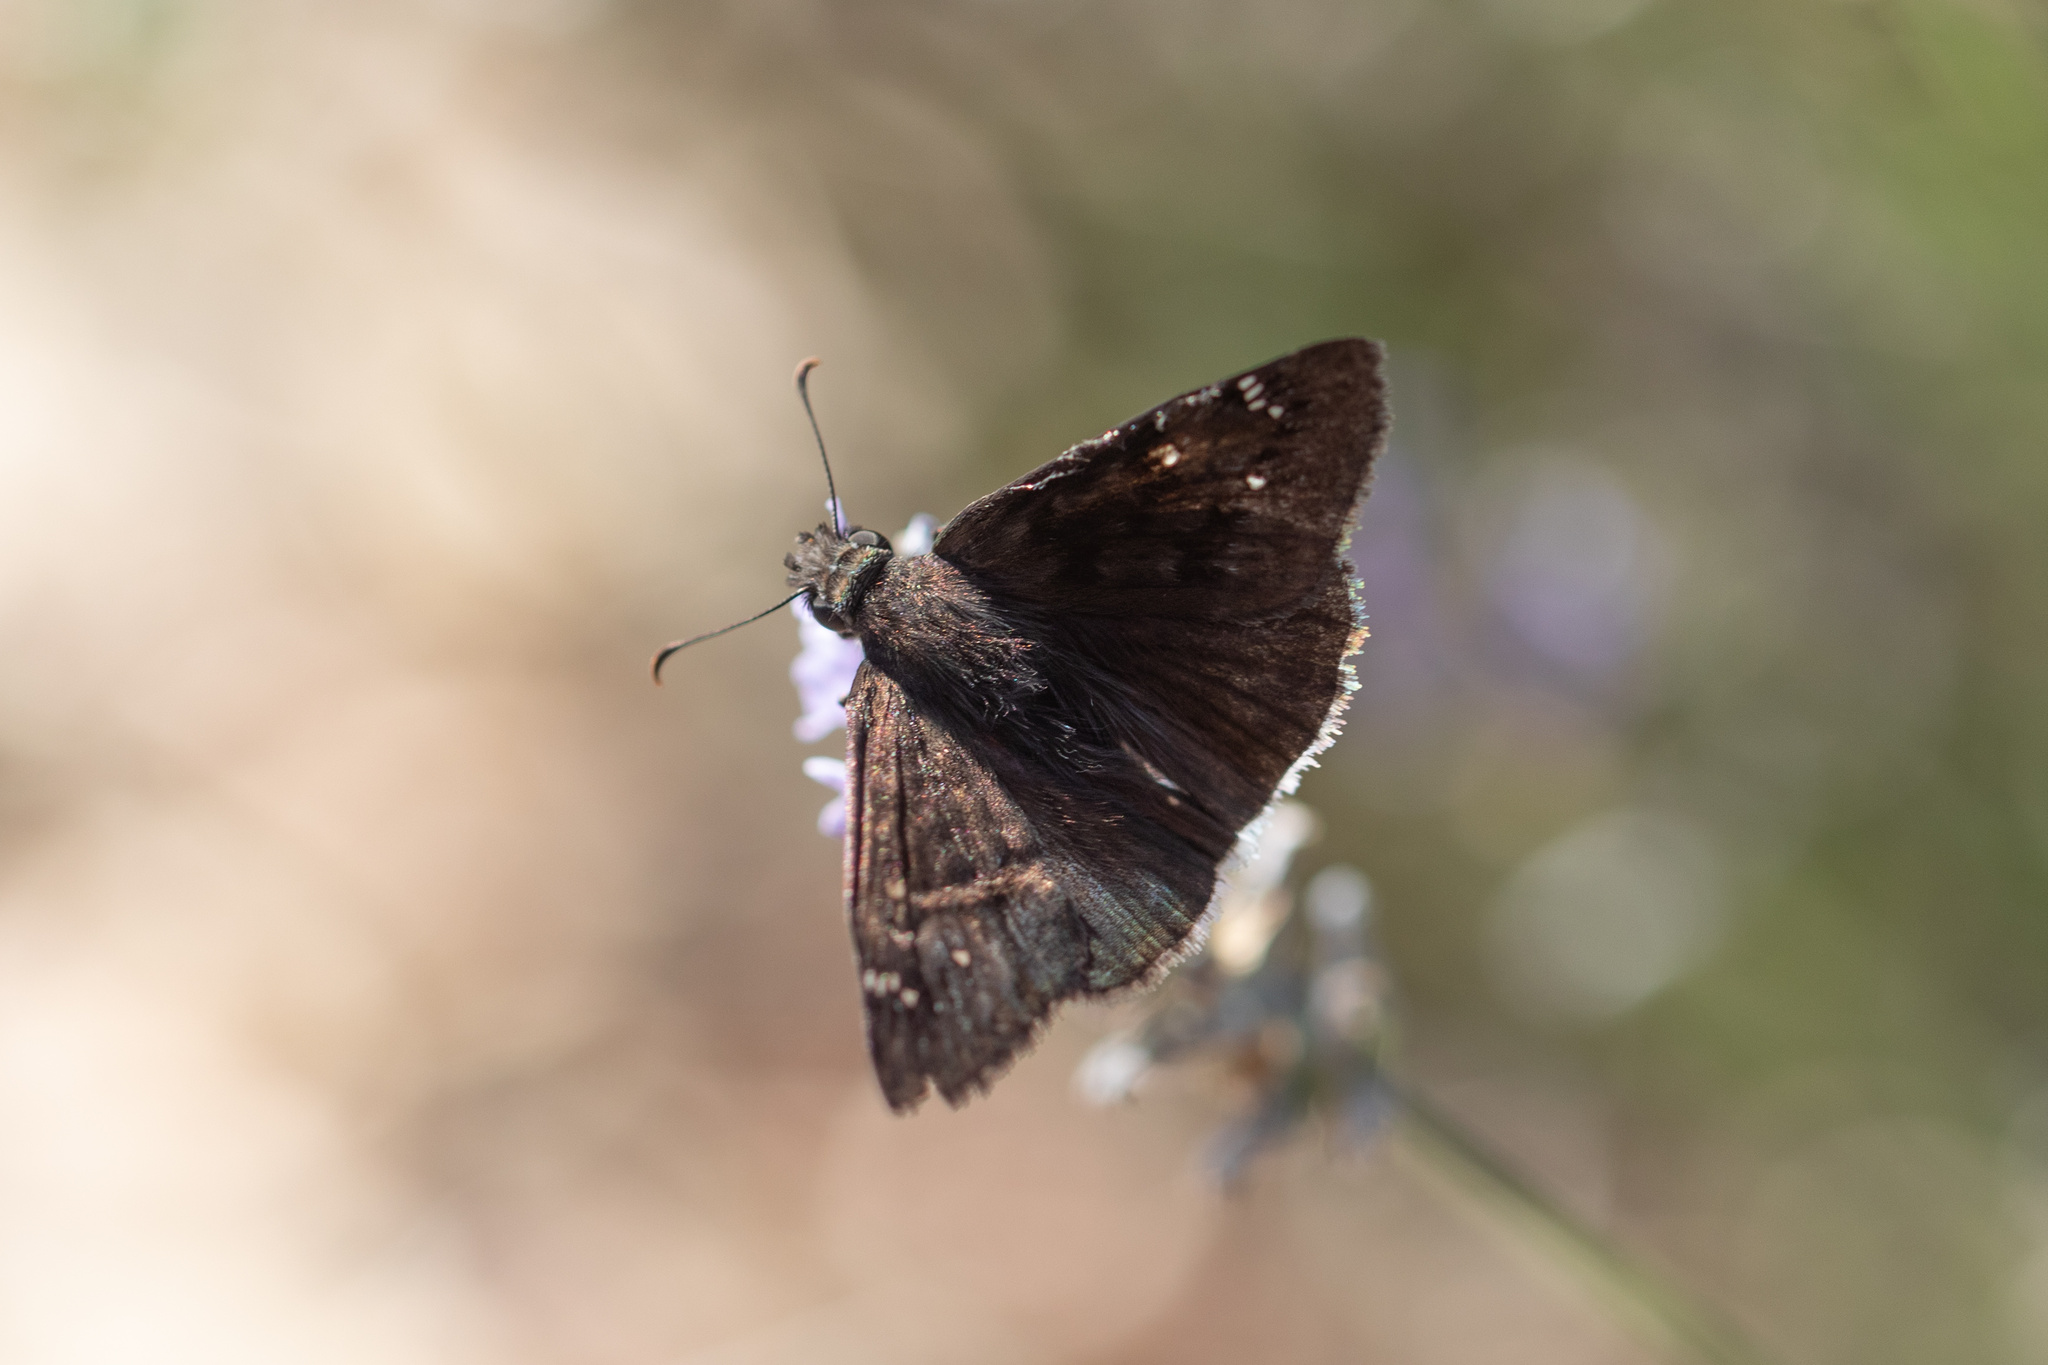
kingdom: Animalia
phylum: Arthropoda
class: Insecta
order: Lepidoptera
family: Hesperiidae
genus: Erynnis
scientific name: Erynnis tristis
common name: Mournful duskywing
